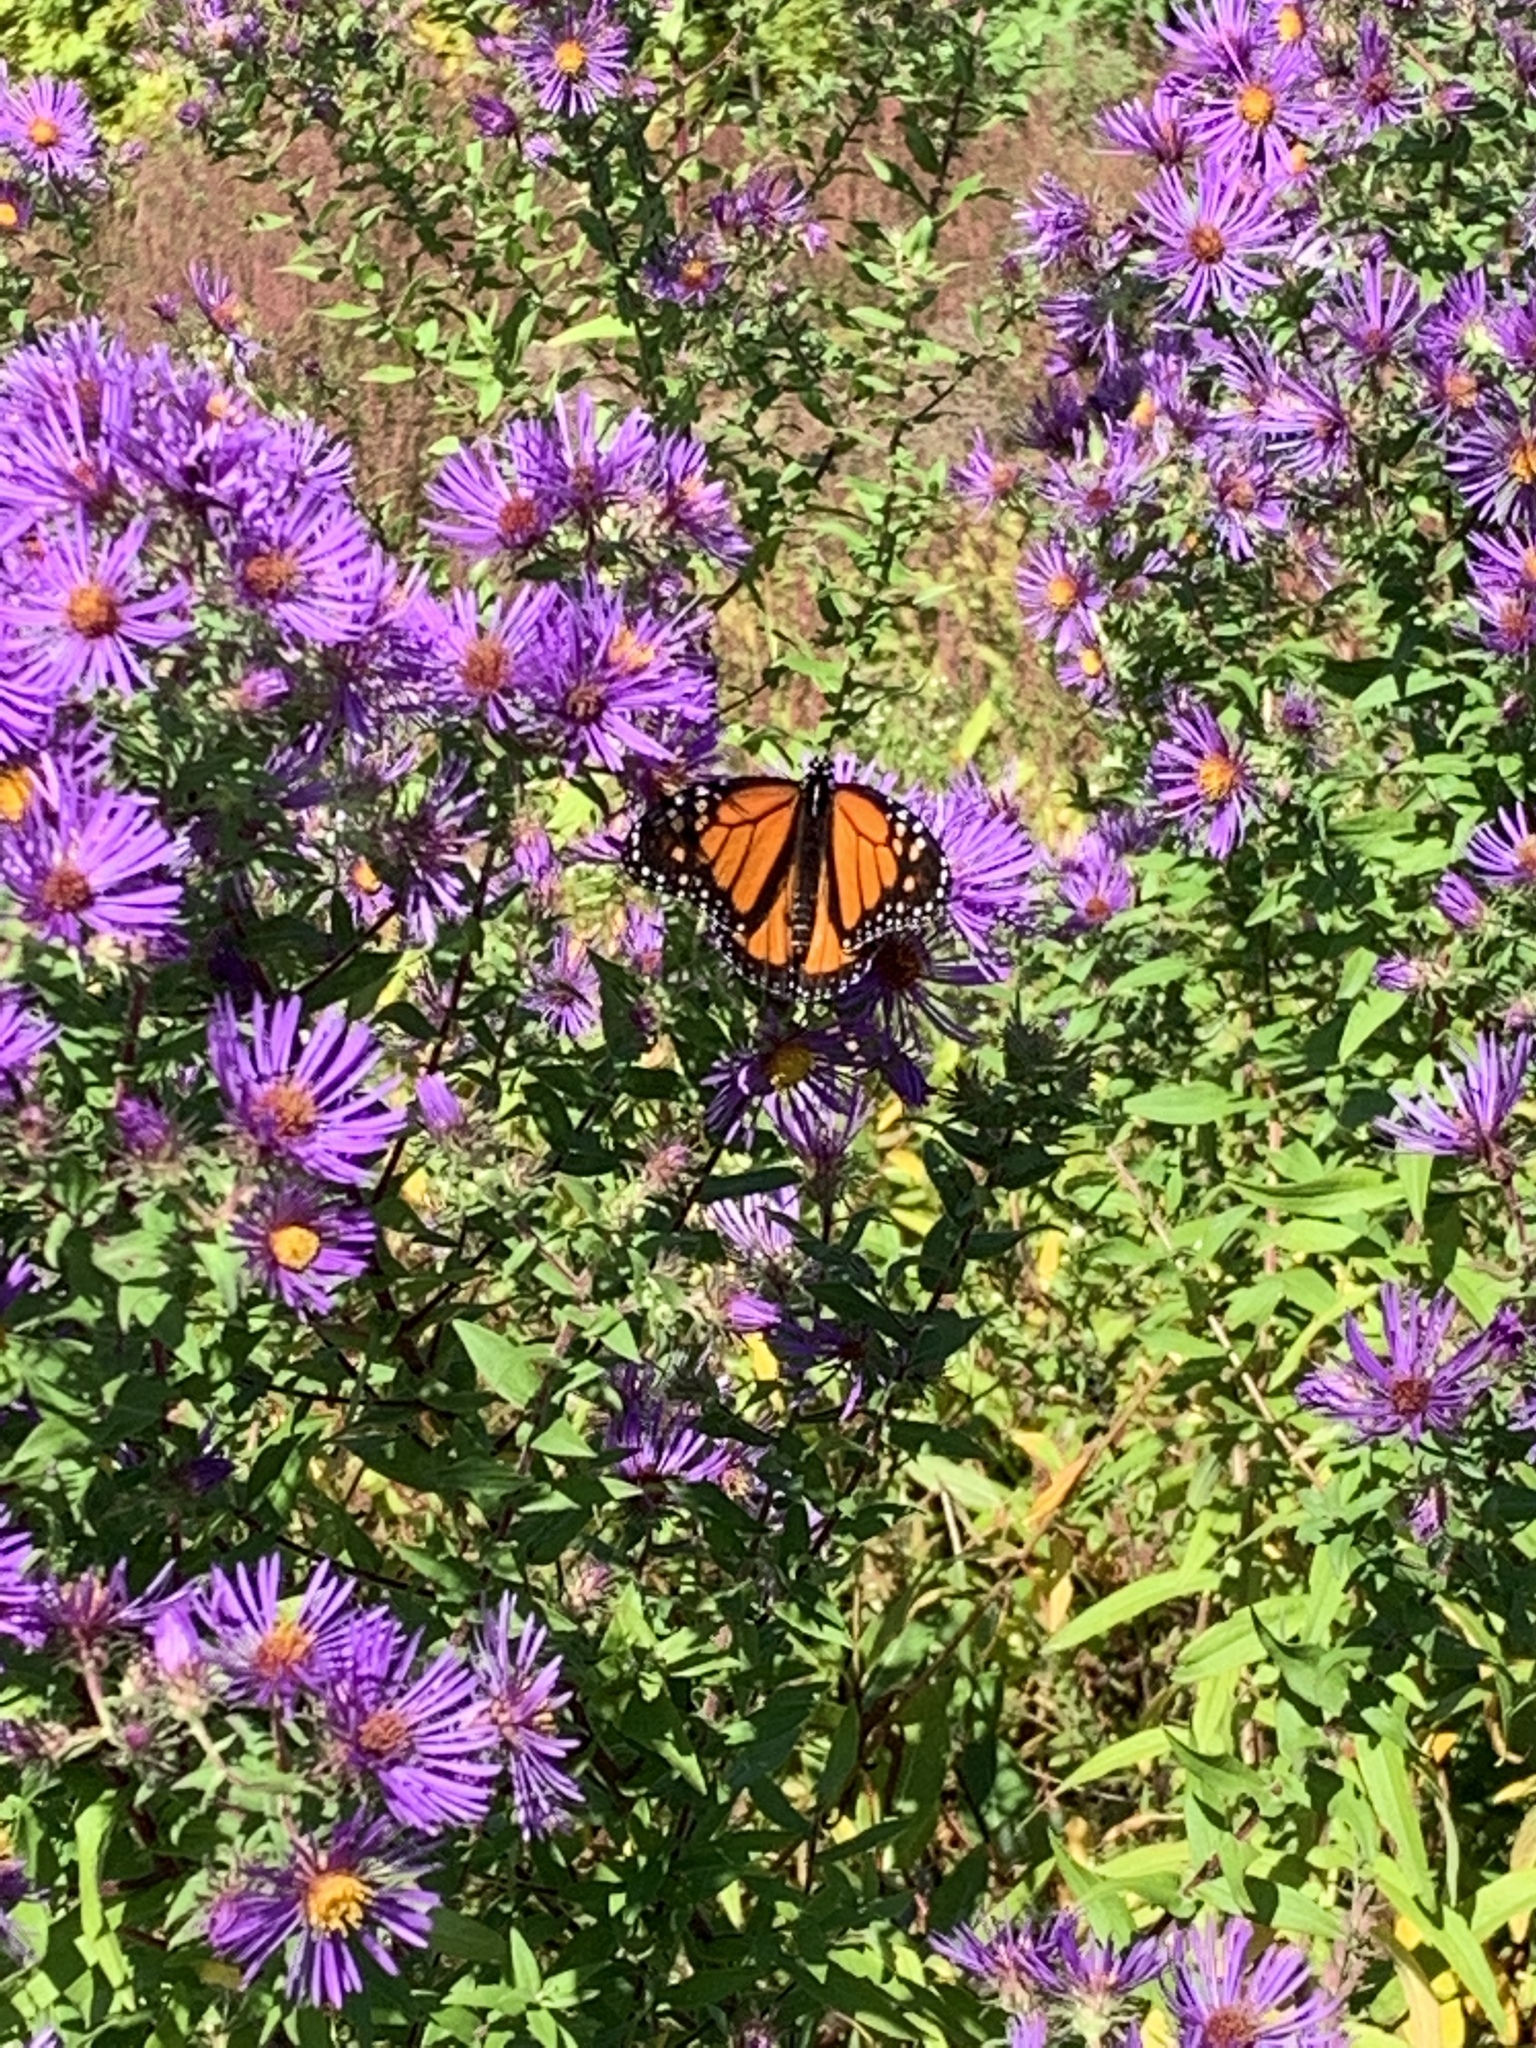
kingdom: Animalia
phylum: Arthropoda
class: Insecta
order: Lepidoptera
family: Nymphalidae
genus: Danaus
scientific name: Danaus plexippus
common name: Monarch
